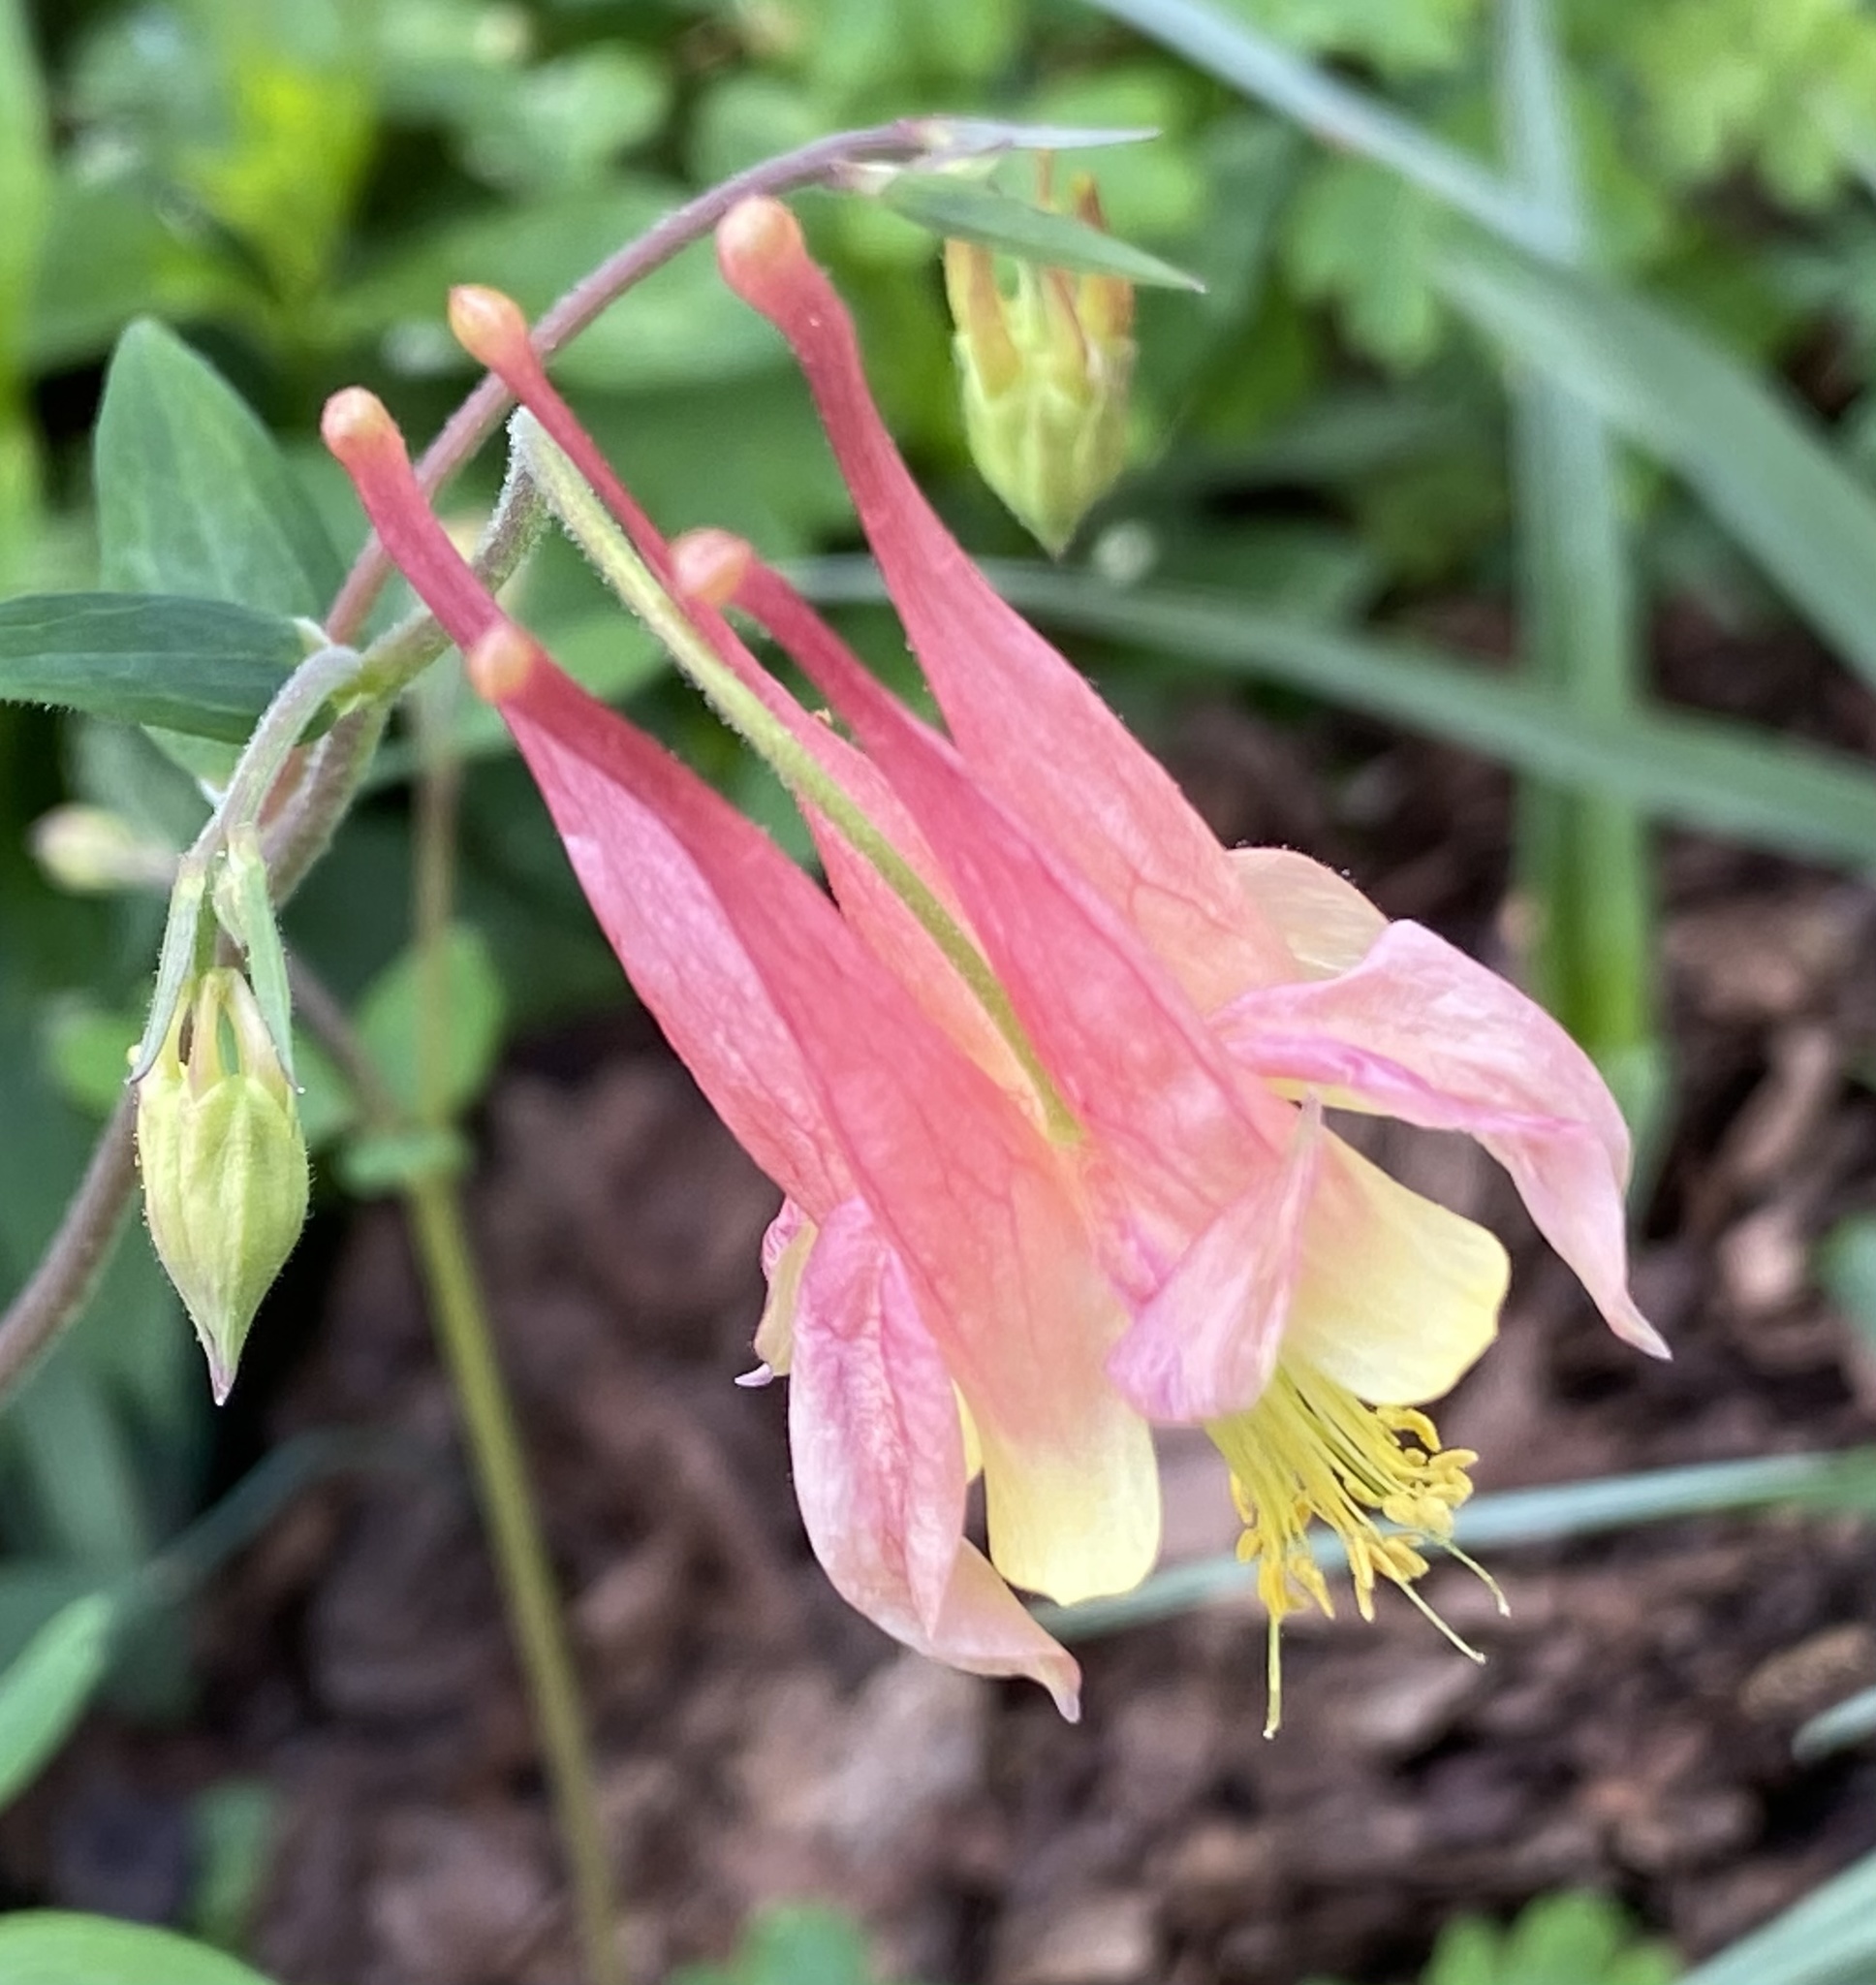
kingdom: Plantae
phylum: Tracheophyta
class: Magnoliopsida
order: Ranunculales
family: Ranunculaceae
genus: Aquilegia
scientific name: Aquilegia canadensis
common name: American columbine
